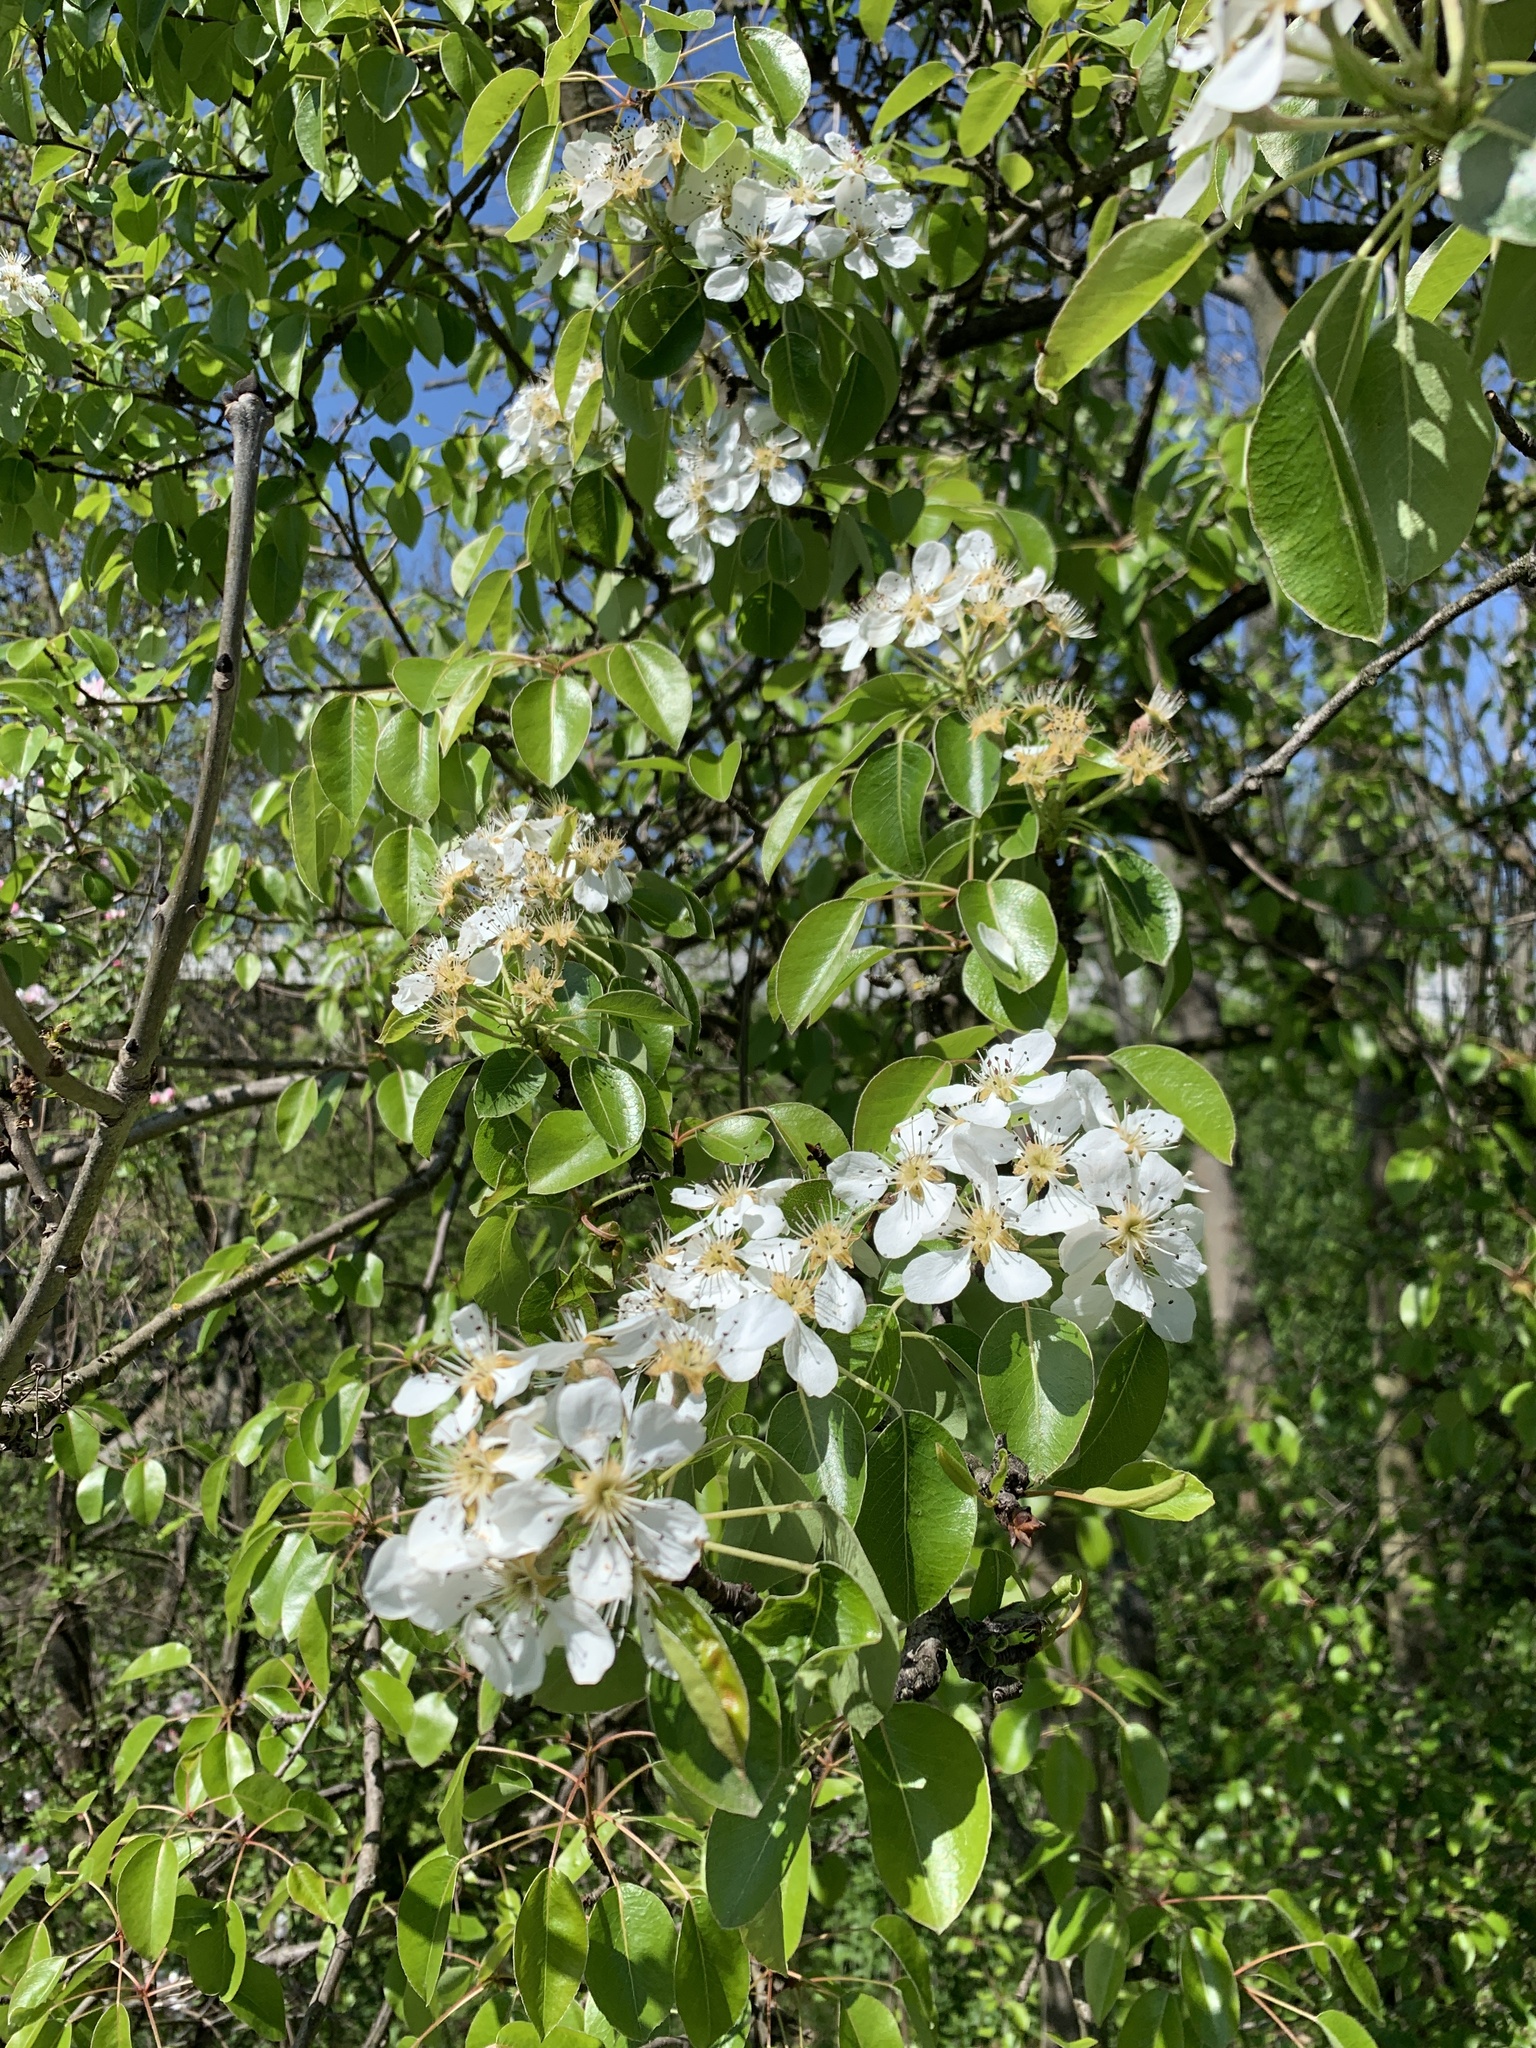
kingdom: Plantae
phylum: Tracheophyta
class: Magnoliopsida
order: Rosales
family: Rosaceae
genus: Pyrus
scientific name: Pyrus communis
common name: Pear
